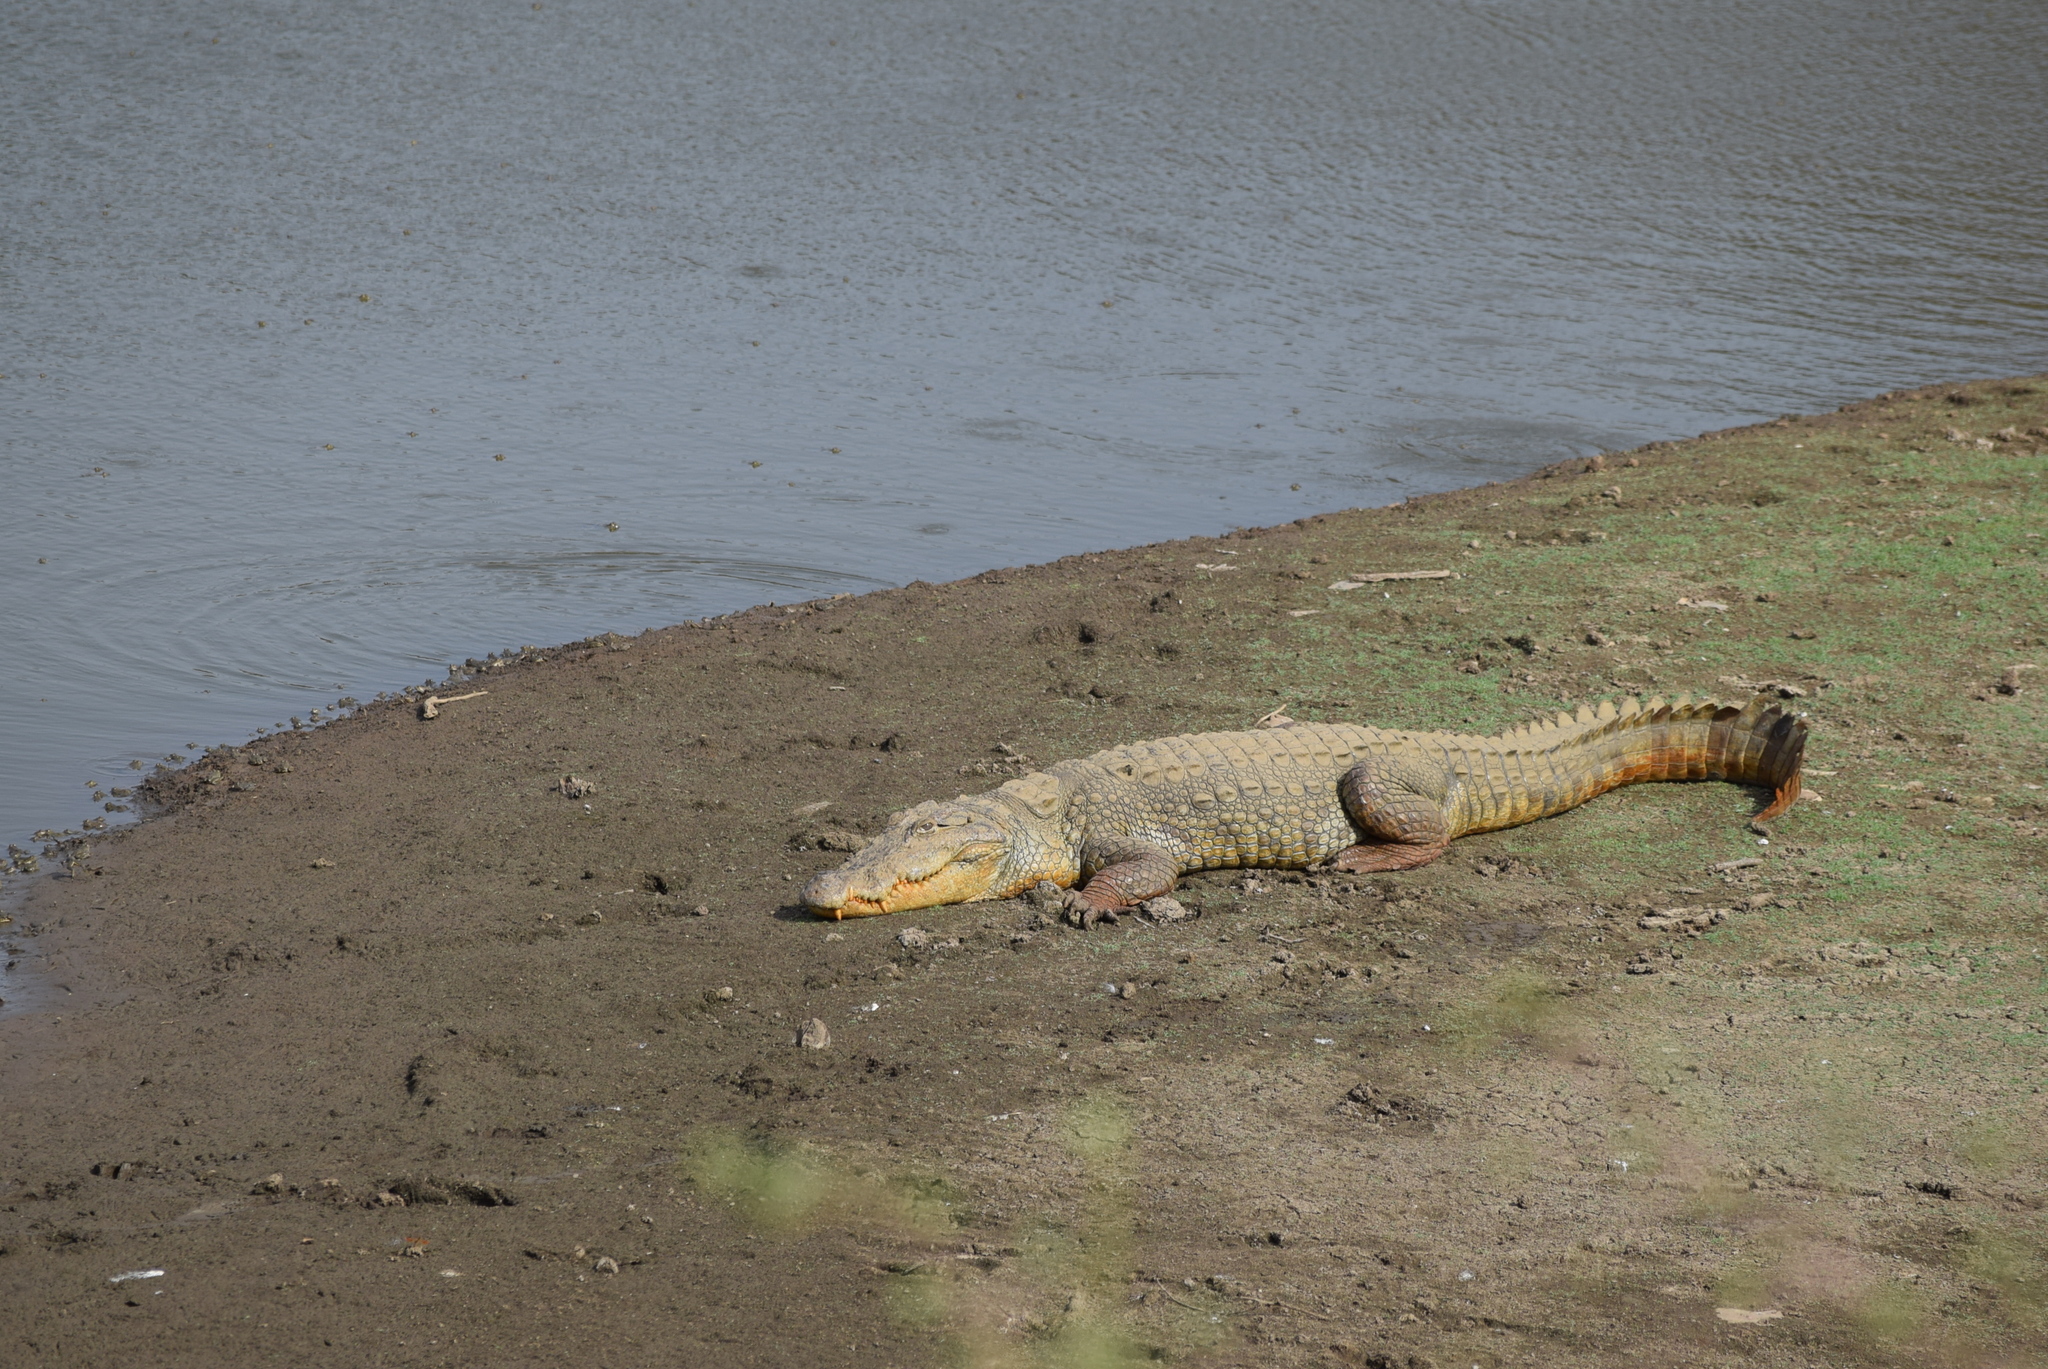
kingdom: Animalia
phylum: Chordata
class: Crocodylia
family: Crocodylidae
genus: Crocodylus
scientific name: Crocodylus palustris
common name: Mugger crocodile
